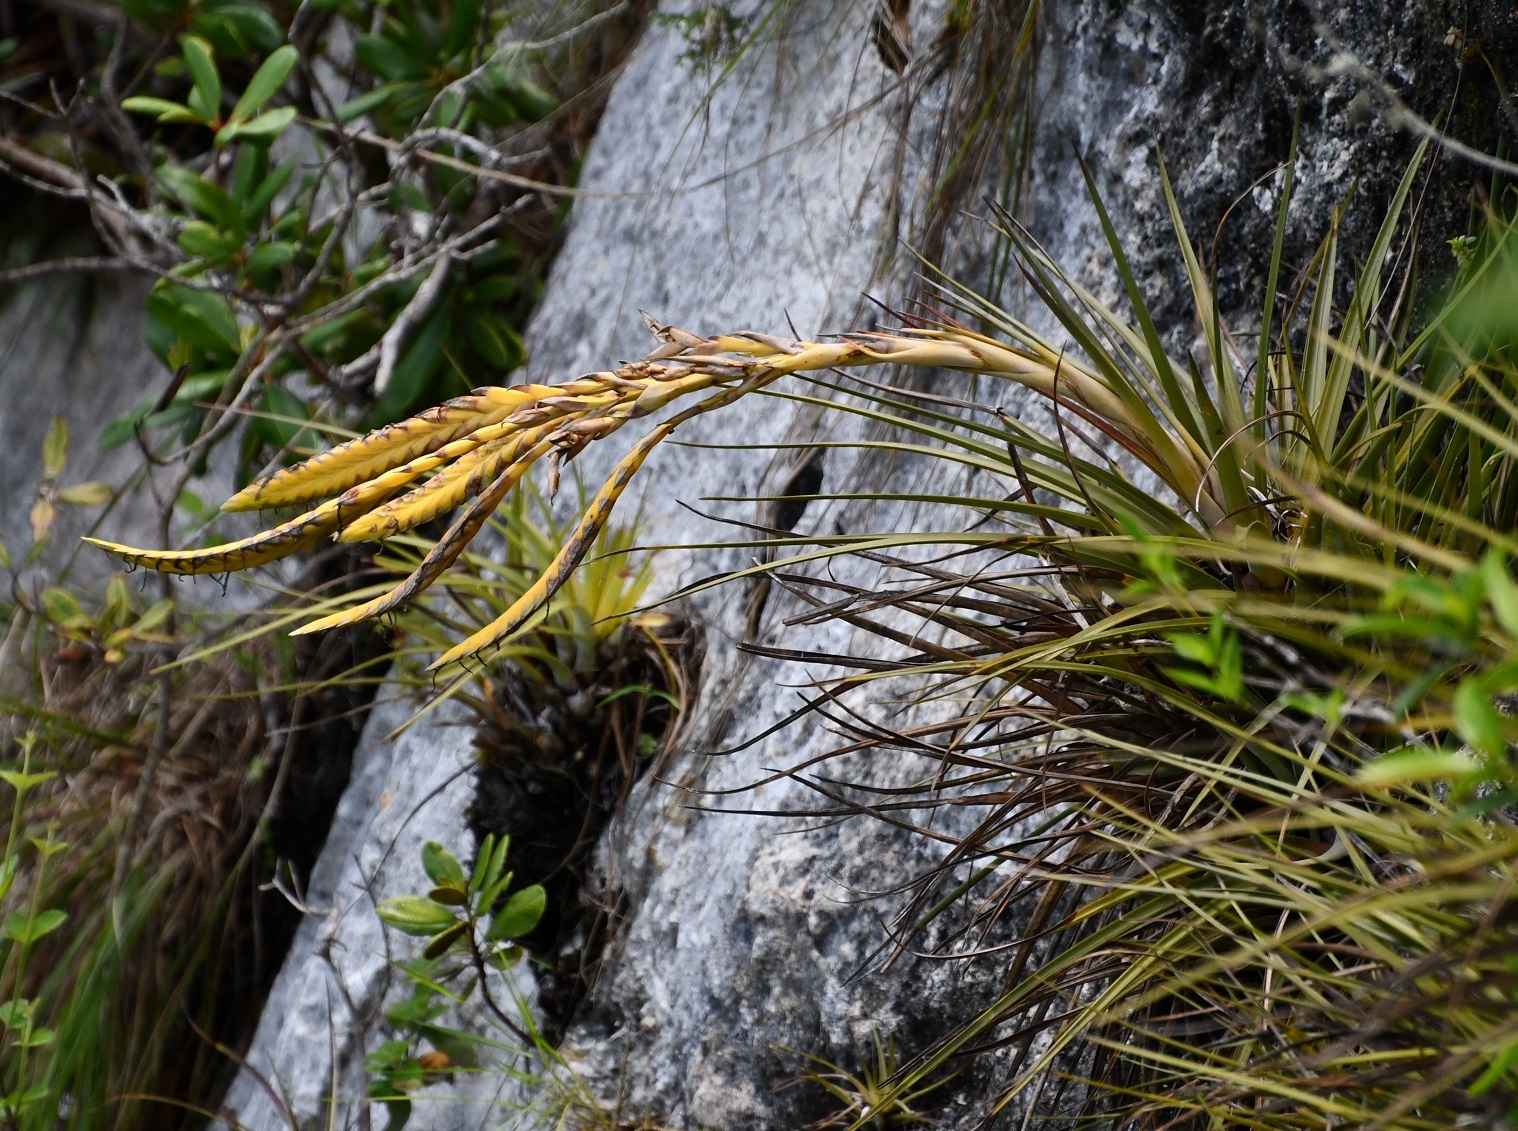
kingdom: Plantae
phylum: Tracheophyta
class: Liliopsida
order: Poales
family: Bromeliaceae
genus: Tillandsia
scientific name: Tillandsia fasciculata
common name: Giant airplant
